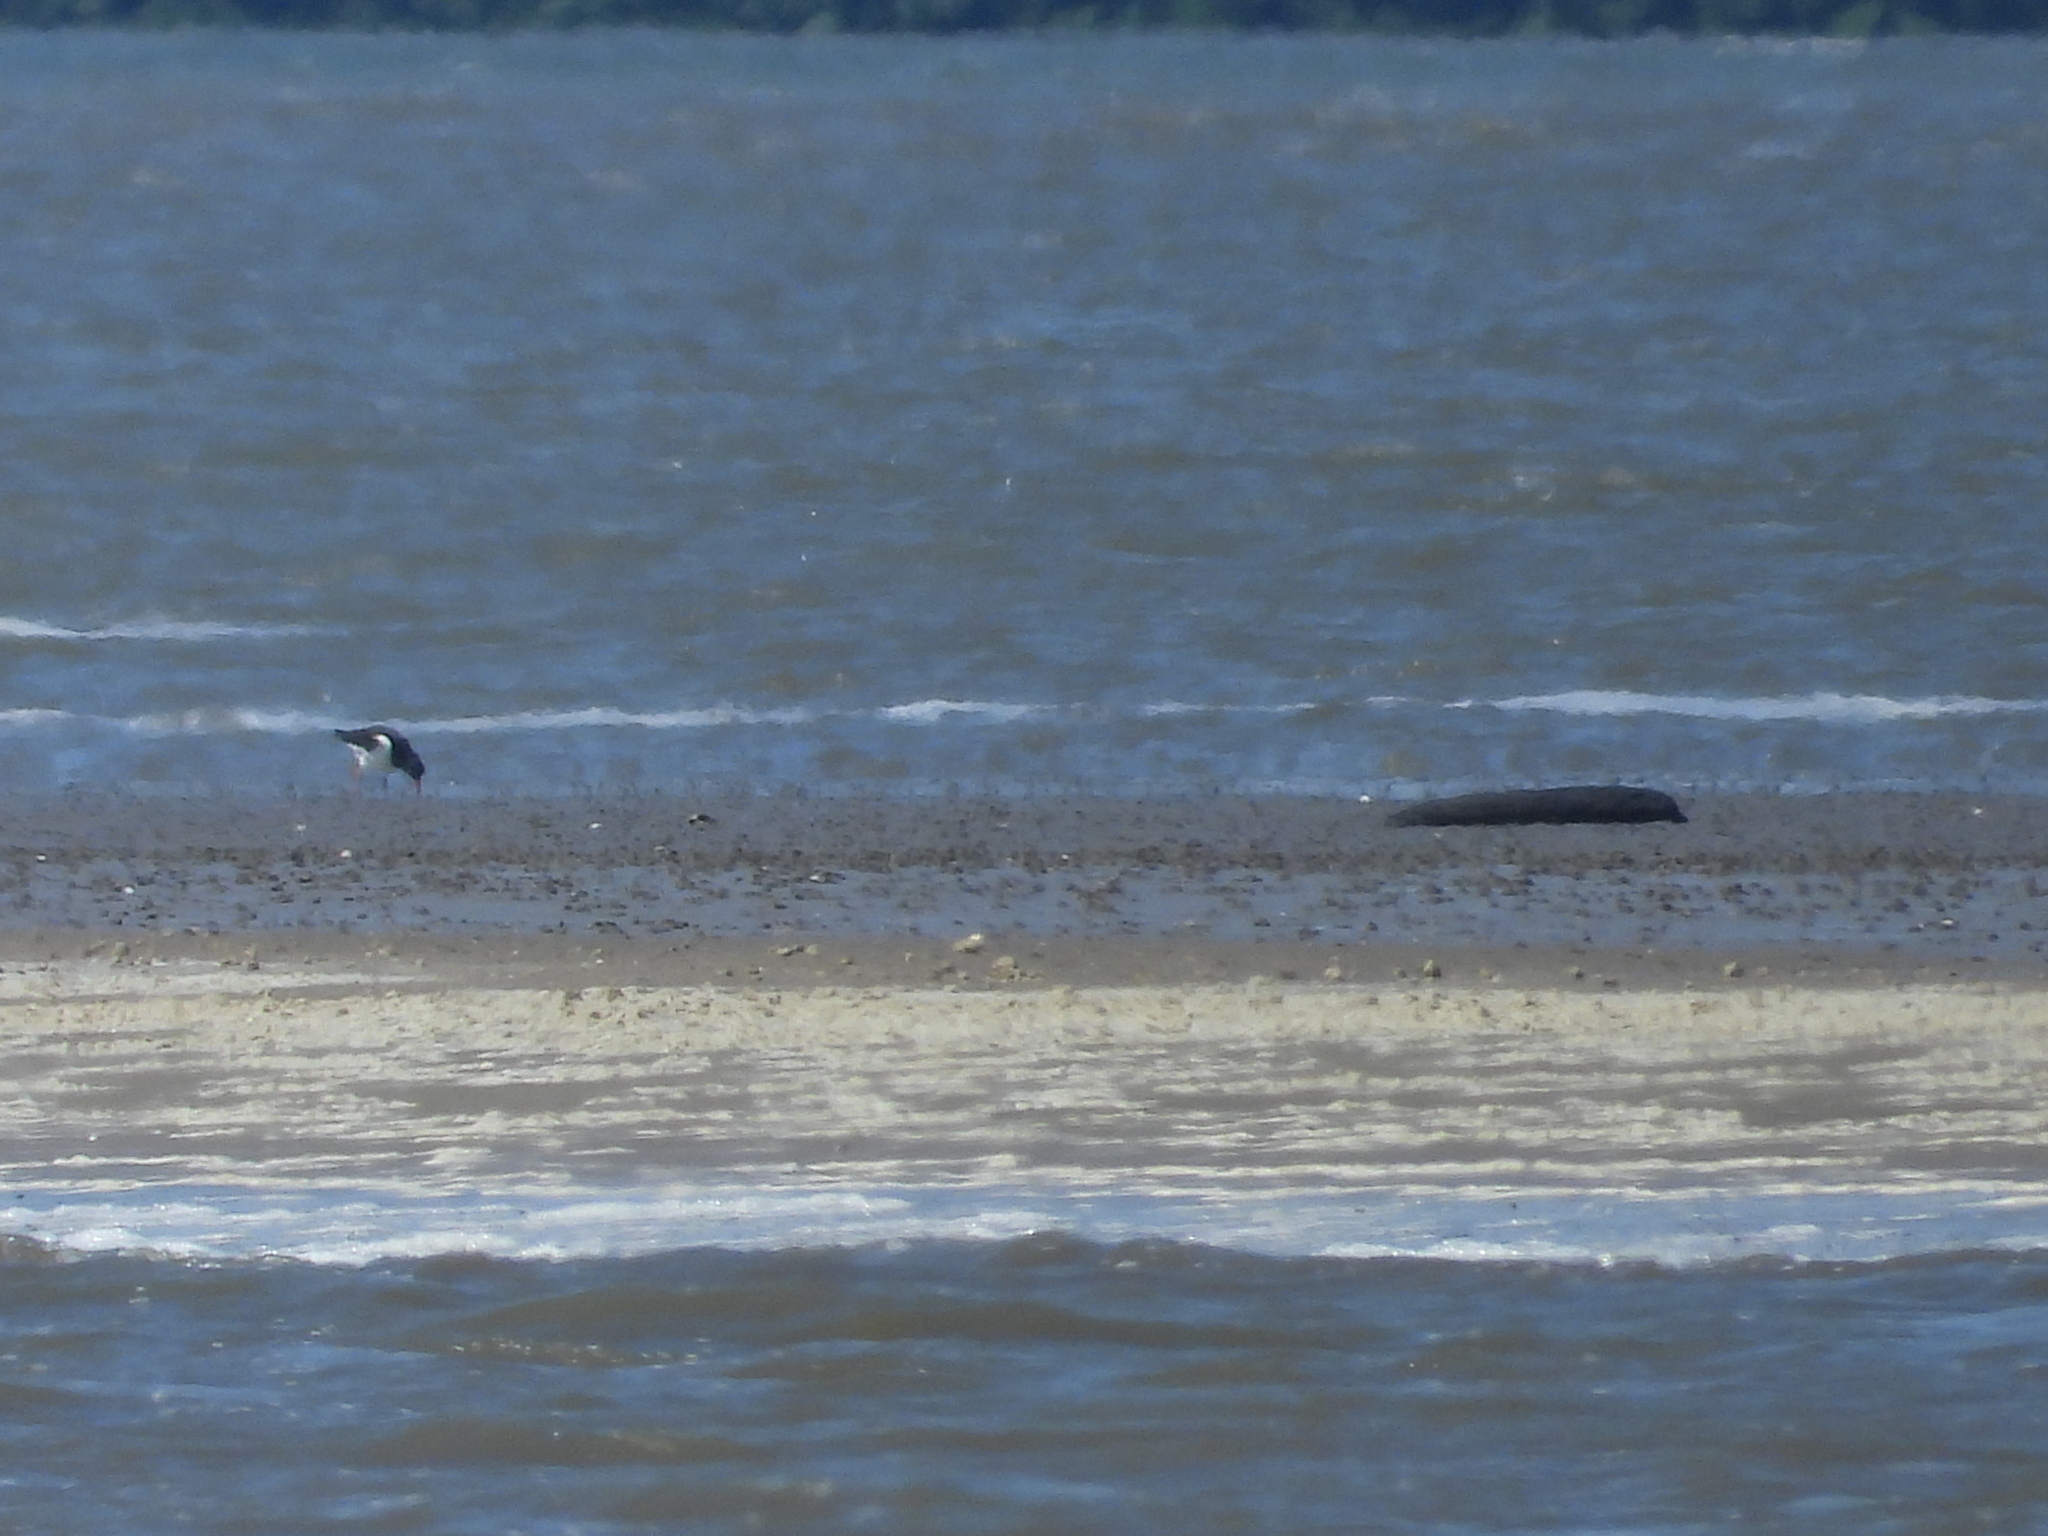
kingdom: Animalia
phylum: Chordata
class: Aves
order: Charadriiformes
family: Haematopodidae
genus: Haematopus
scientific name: Haematopus ostralegus
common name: Eurasian oystercatcher
